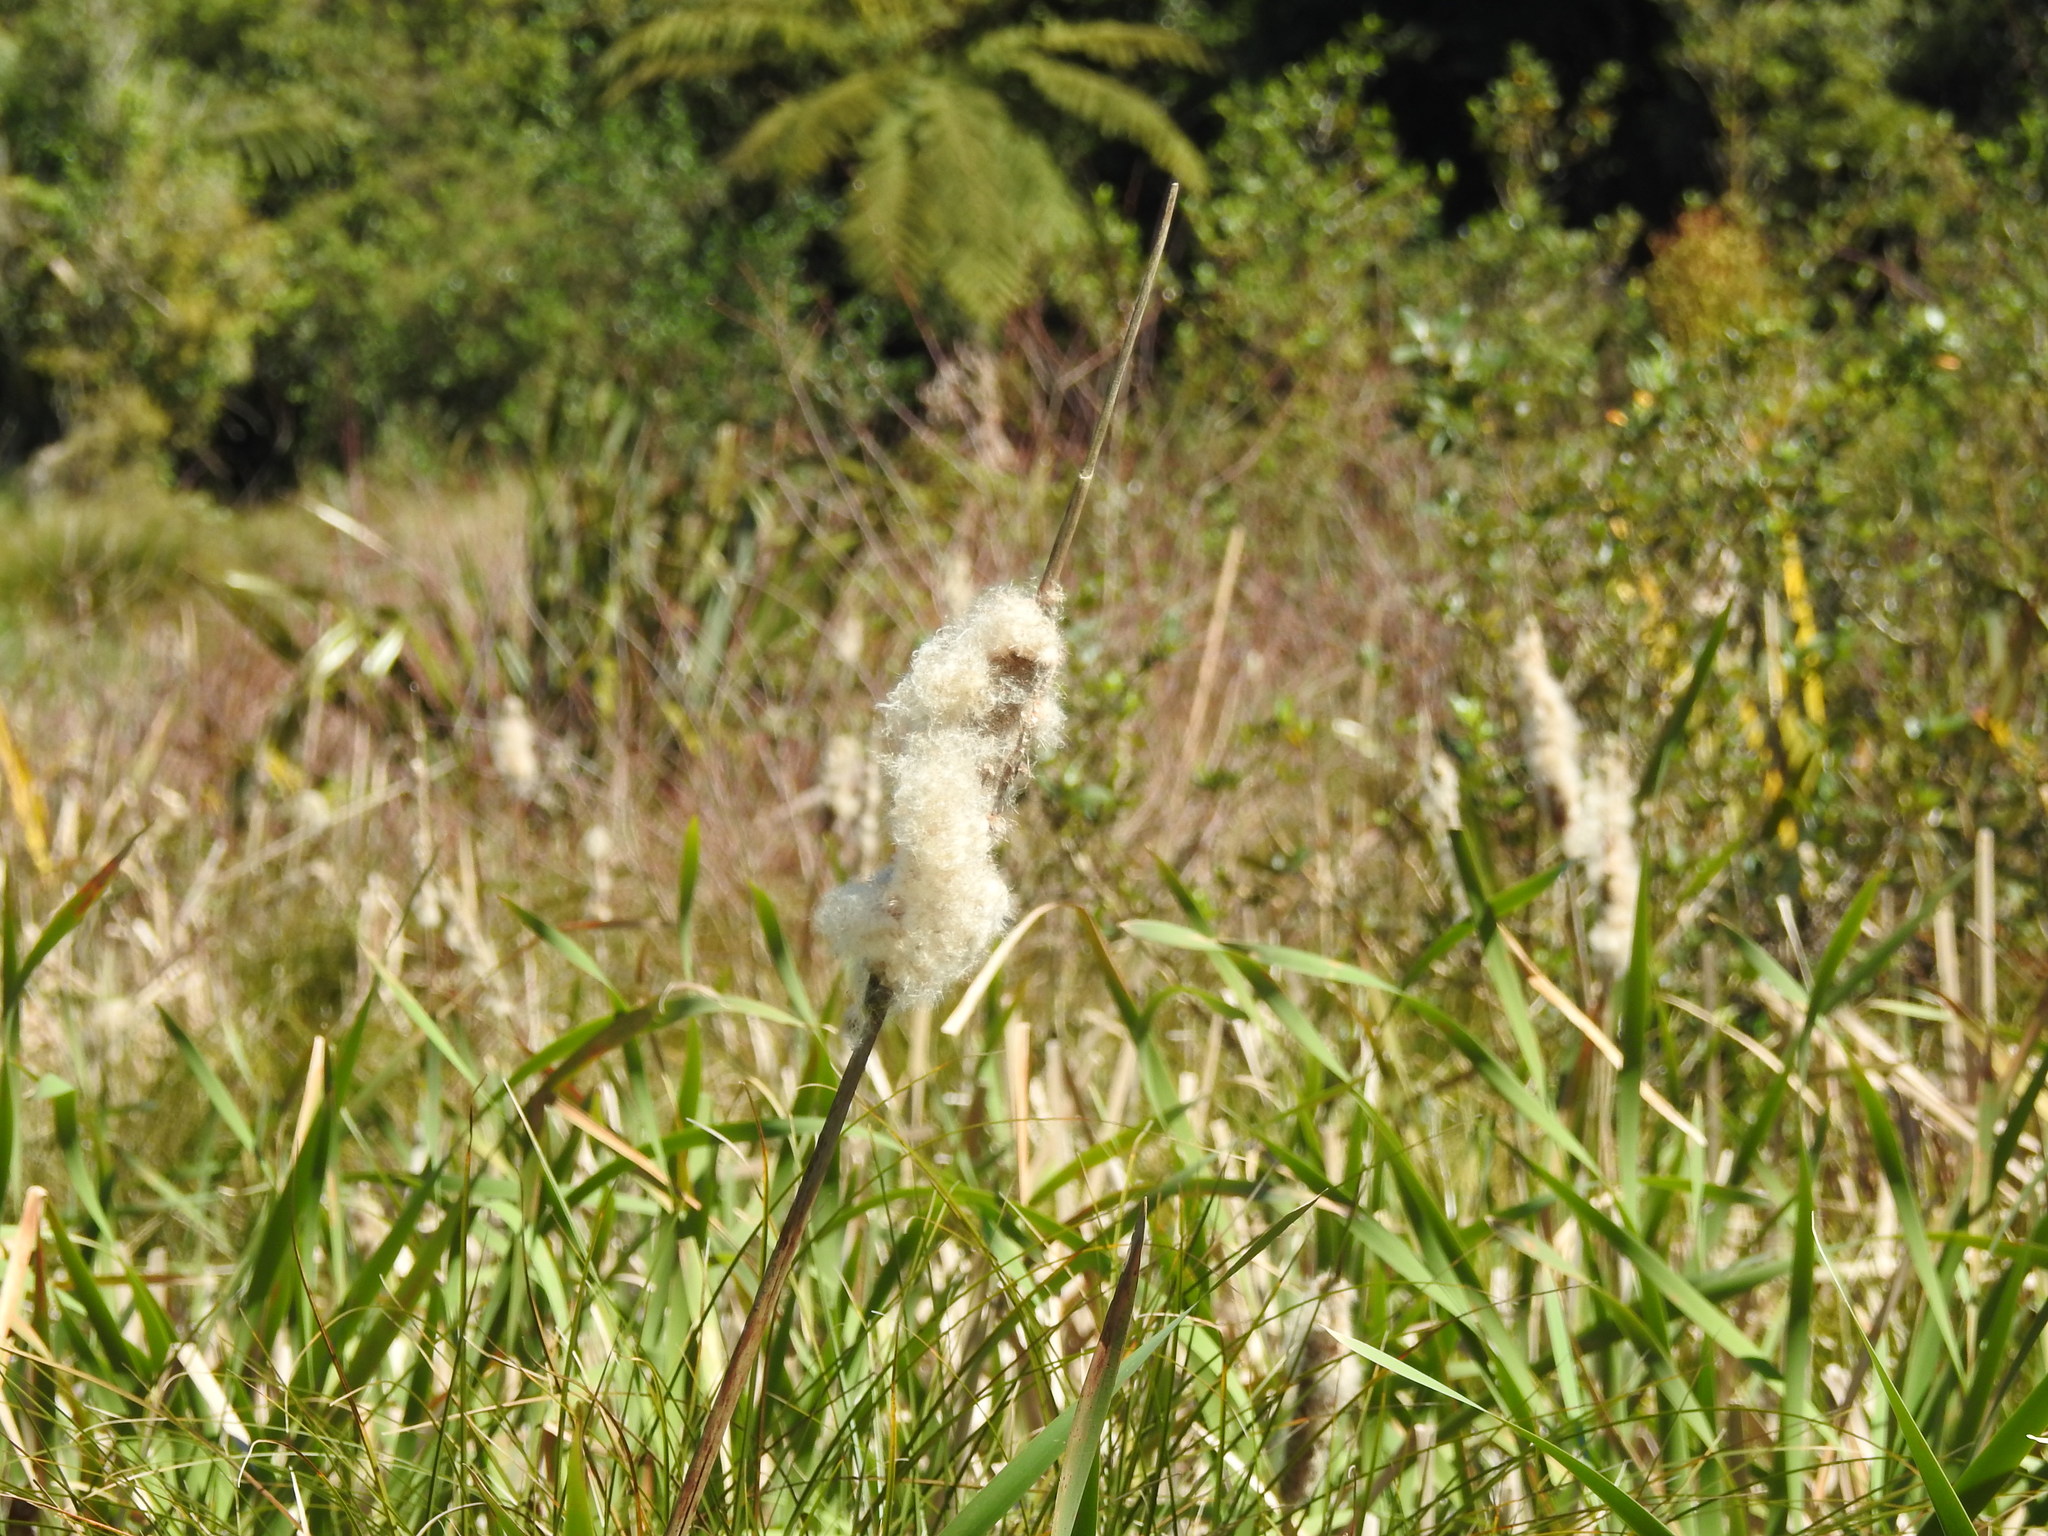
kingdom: Plantae
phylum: Tracheophyta
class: Liliopsida
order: Poales
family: Typhaceae
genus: Typha
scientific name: Typha orientalis
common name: Bullrush
